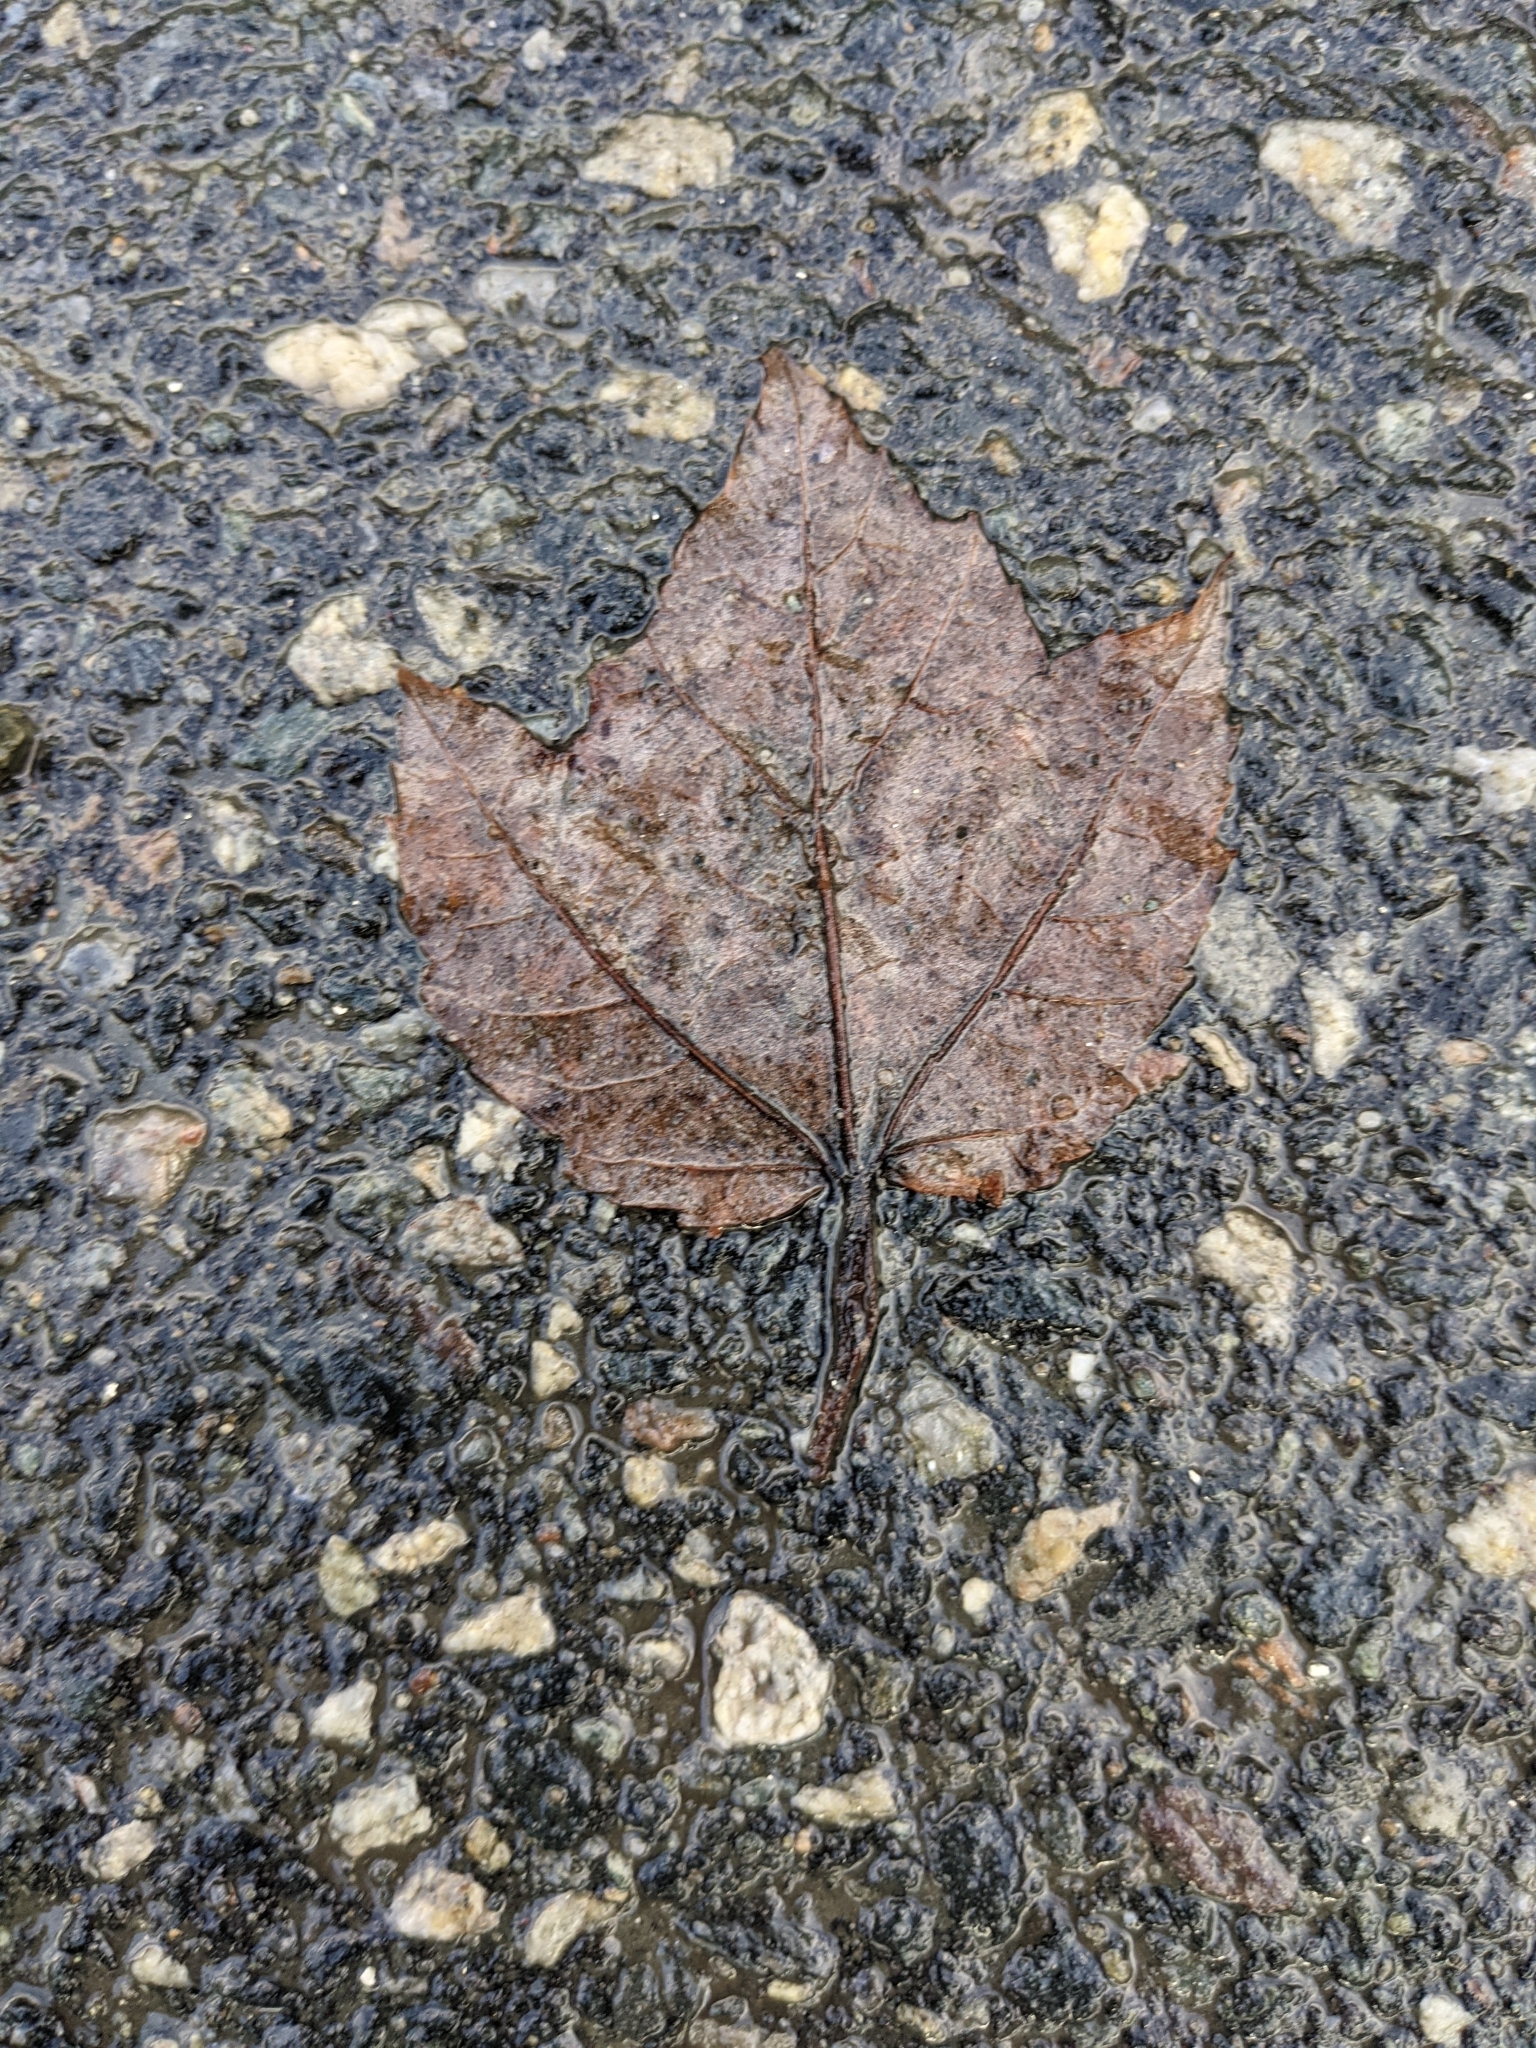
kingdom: Plantae
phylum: Tracheophyta
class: Magnoliopsida
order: Sapindales
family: Sapindaceae
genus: Acer
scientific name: Acer rubrum
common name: Red maple
